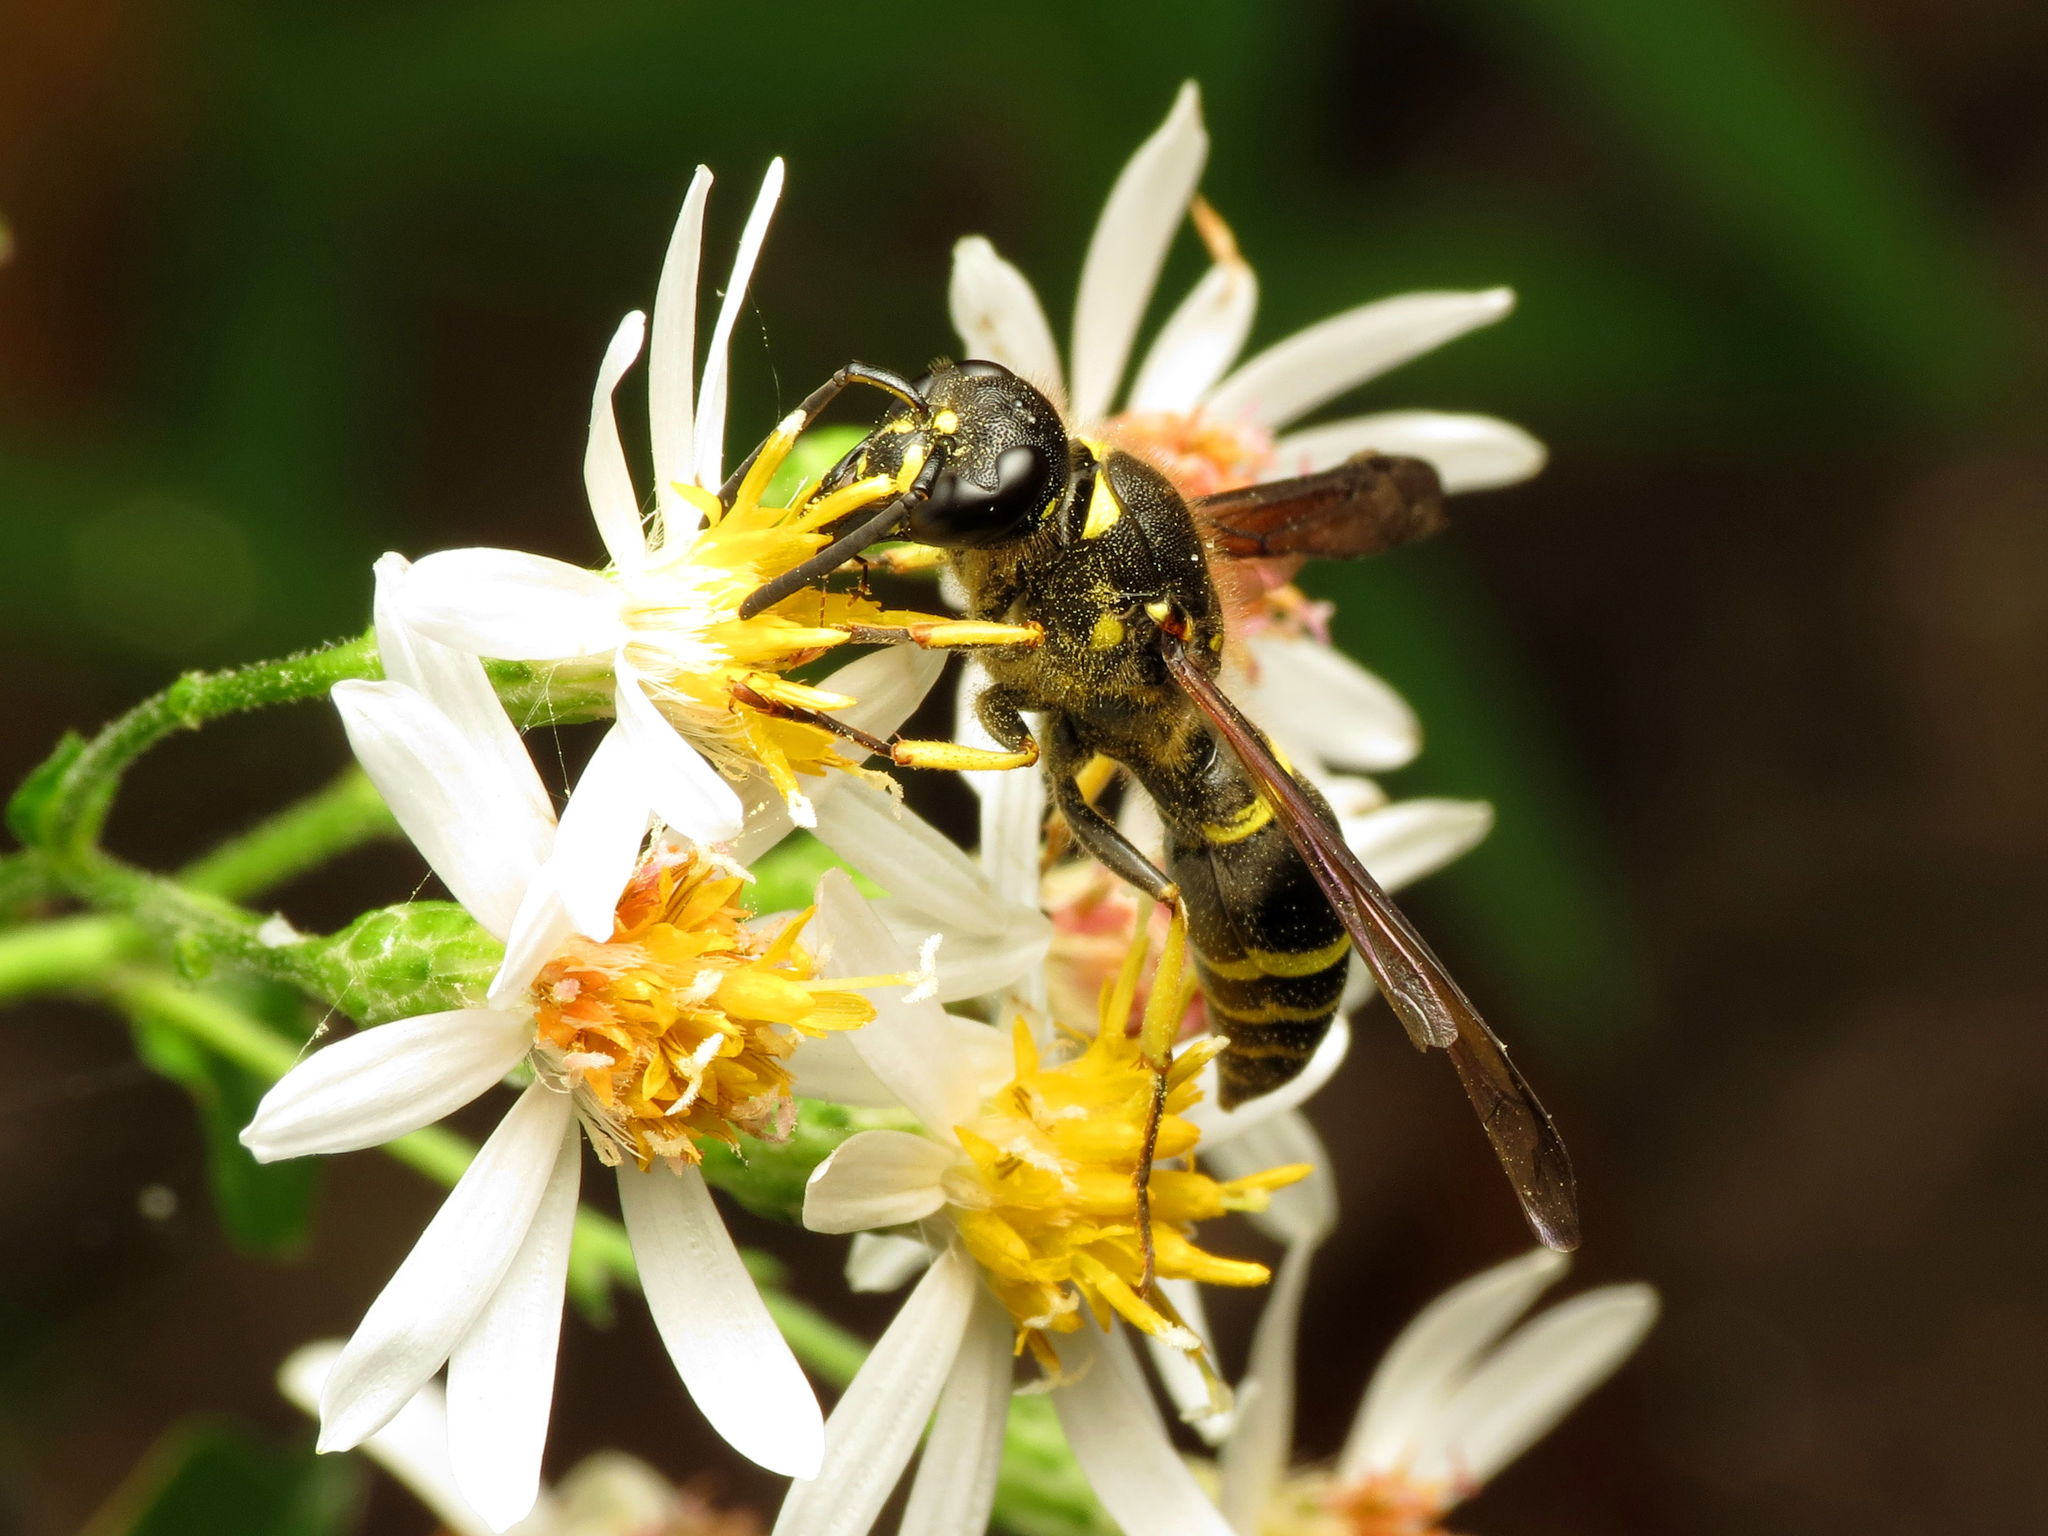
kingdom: Animalia
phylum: Arthropoda
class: Insecta
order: Hymenoptera
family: Vespidae
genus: Ancistrocerus
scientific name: Ancistrocerus
